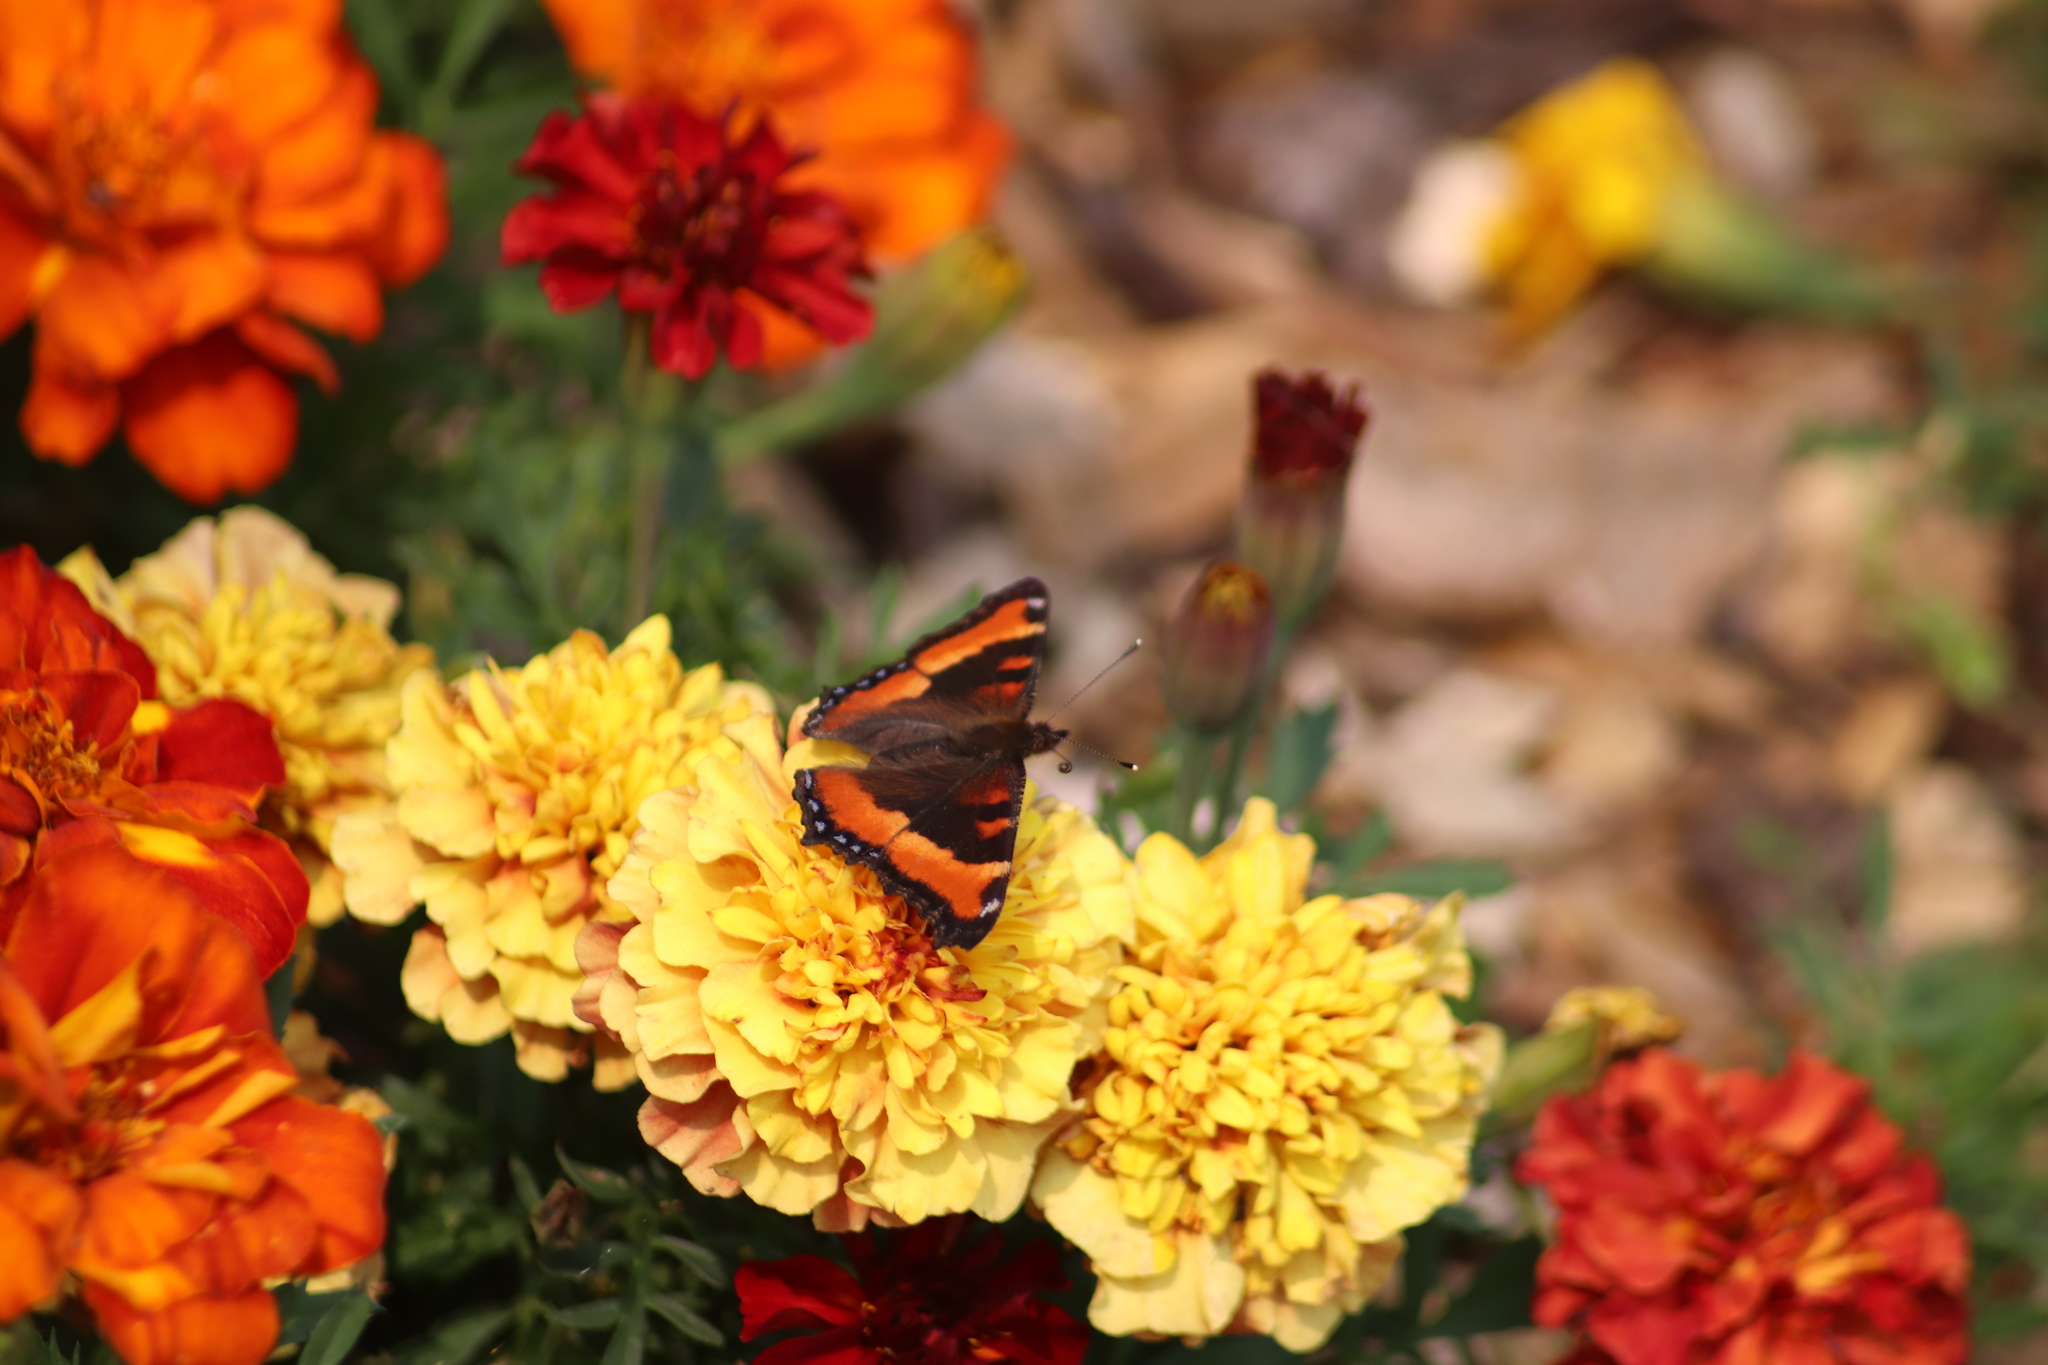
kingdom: Animalia
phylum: Arthropoda
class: Insecta
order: Lepidoptera
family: Nymphalidae
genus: Aglais
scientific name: Aglais milberti
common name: Milbert's tortoiseshell
